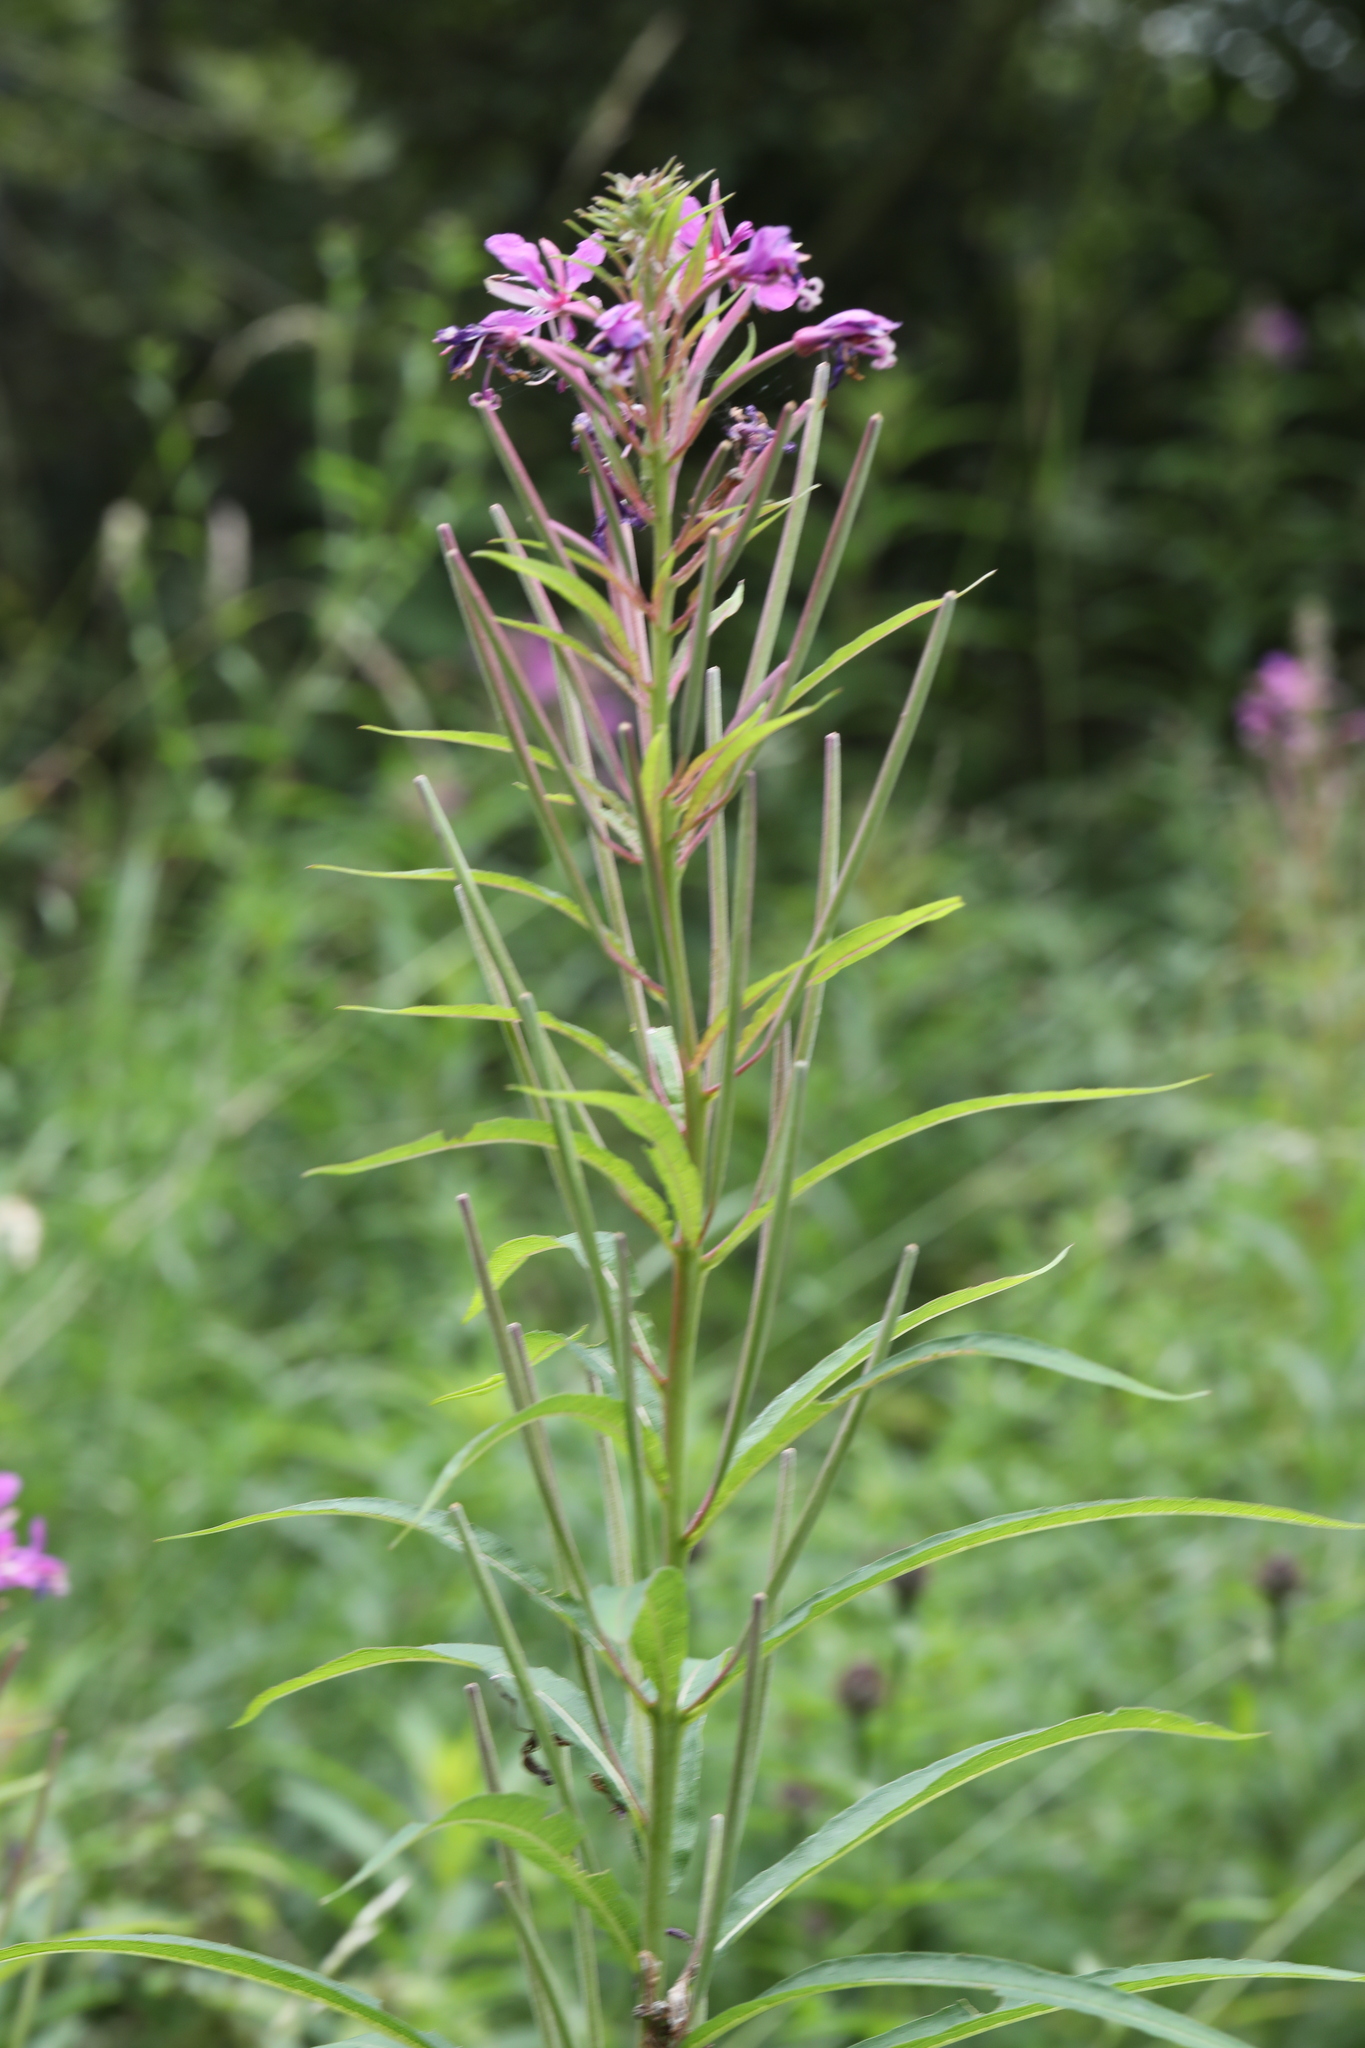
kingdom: Plantae
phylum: Tracheophyta
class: Magnoliopsida
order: Myrtales
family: Onagraceae
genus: Chamaenerion
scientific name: Chamaenerion angustifolium
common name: Fireweed
